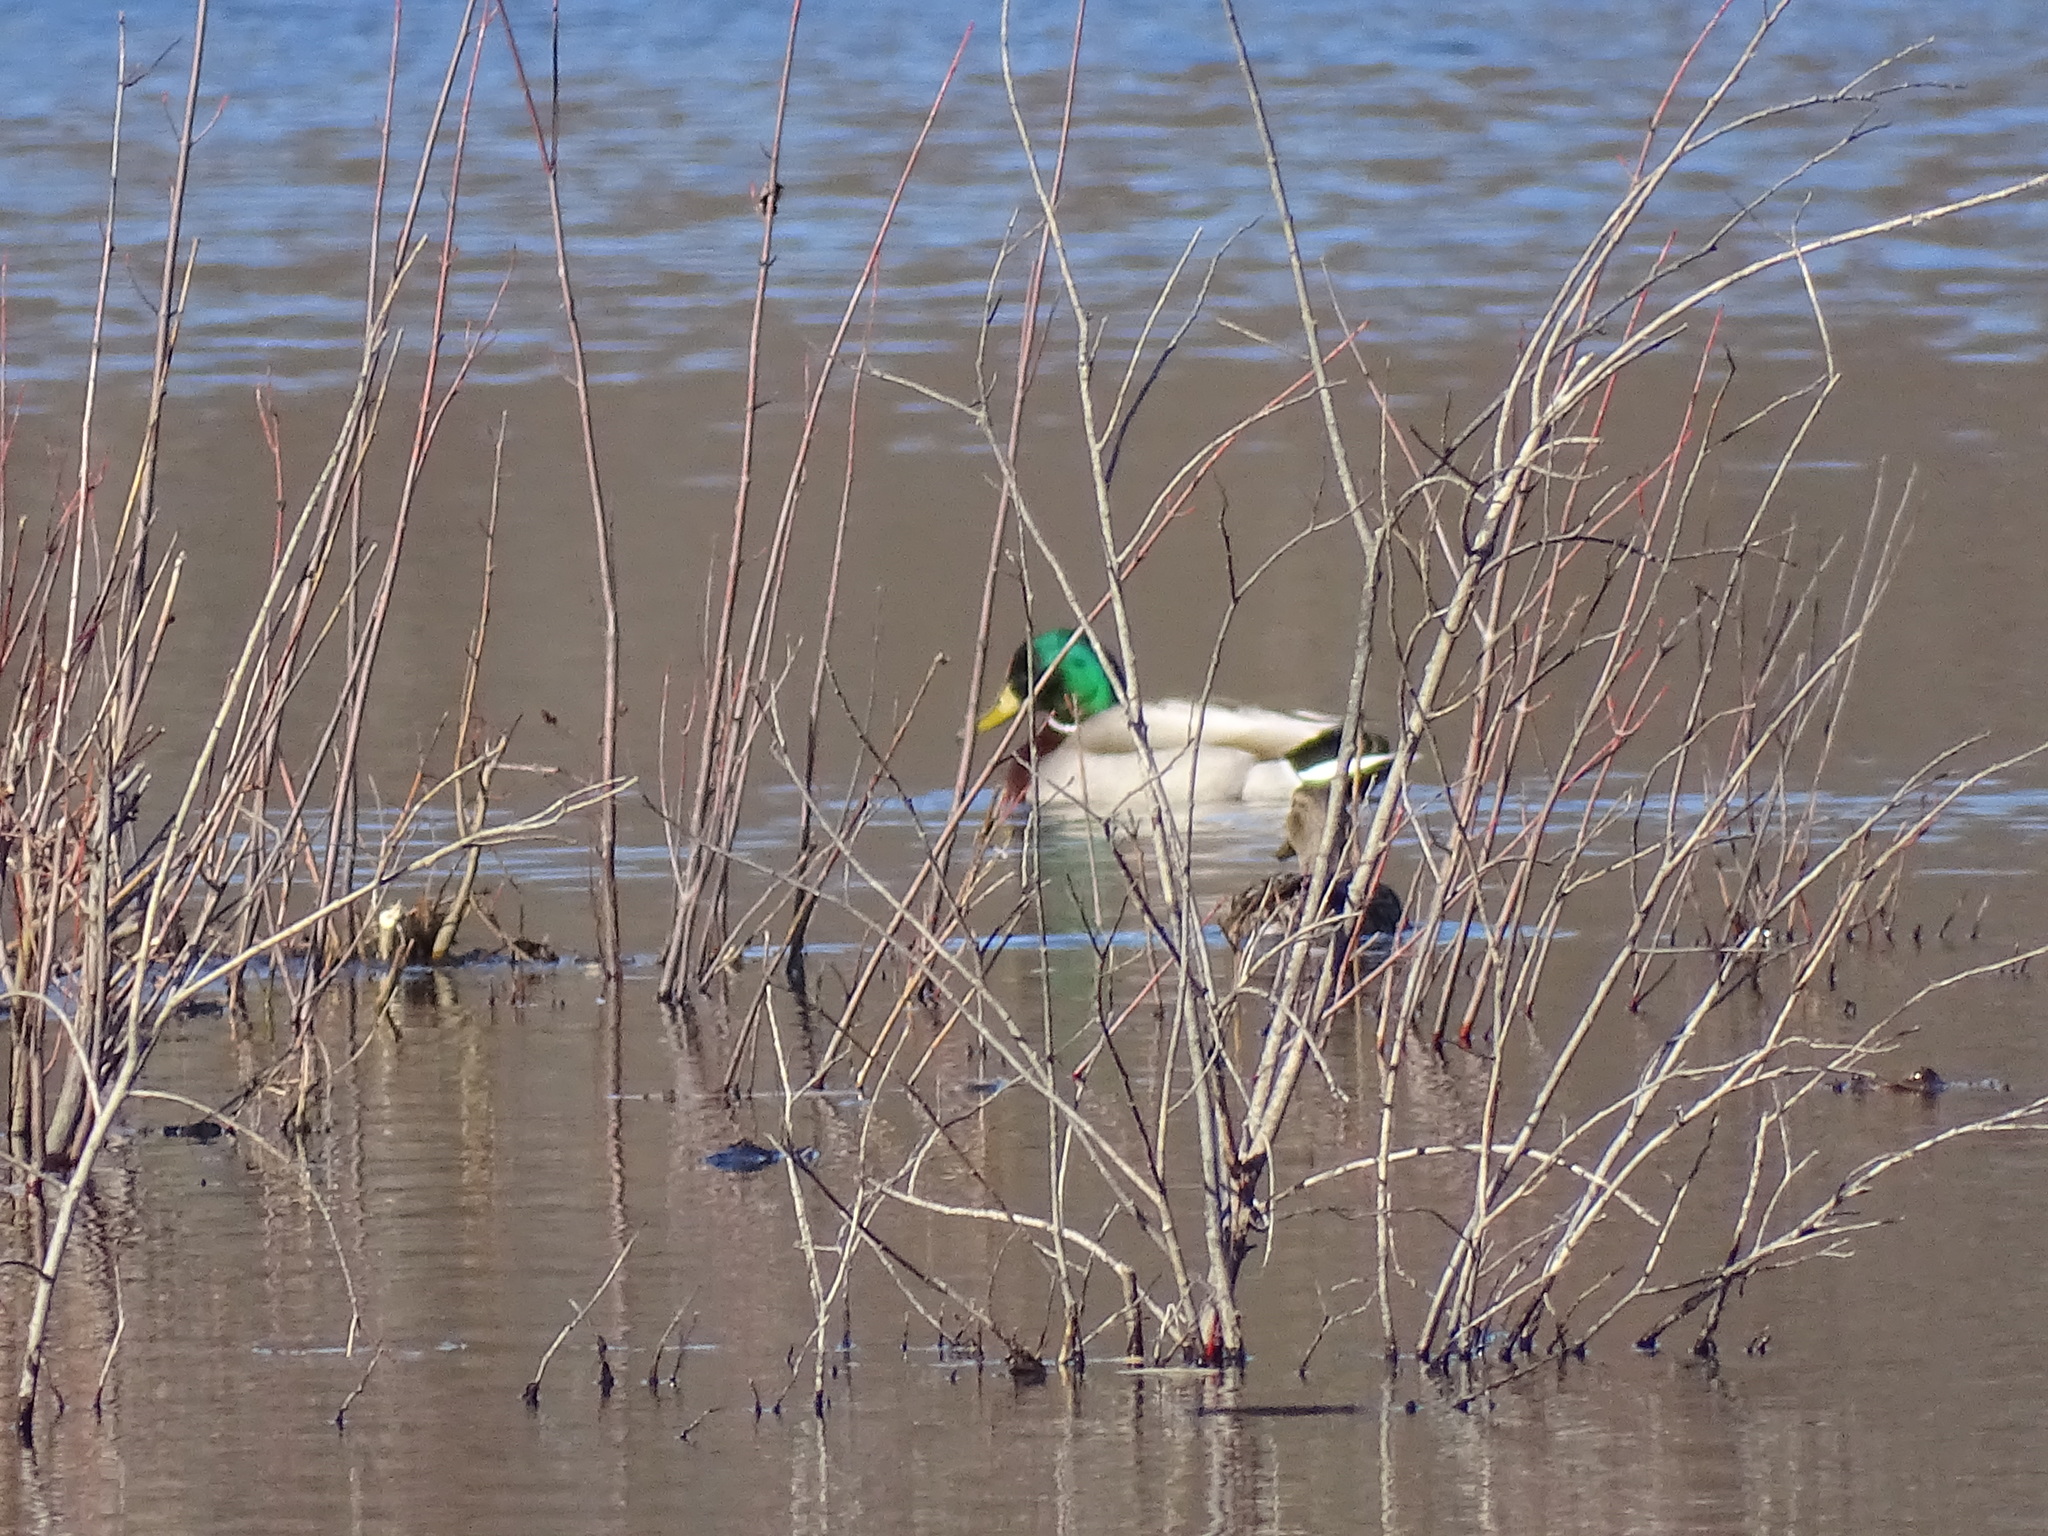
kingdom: Animalia
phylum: Chordata
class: Aves
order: Anseriformes
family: Anatidae
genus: Anas
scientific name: Anas platyrhynchos
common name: Mallard
